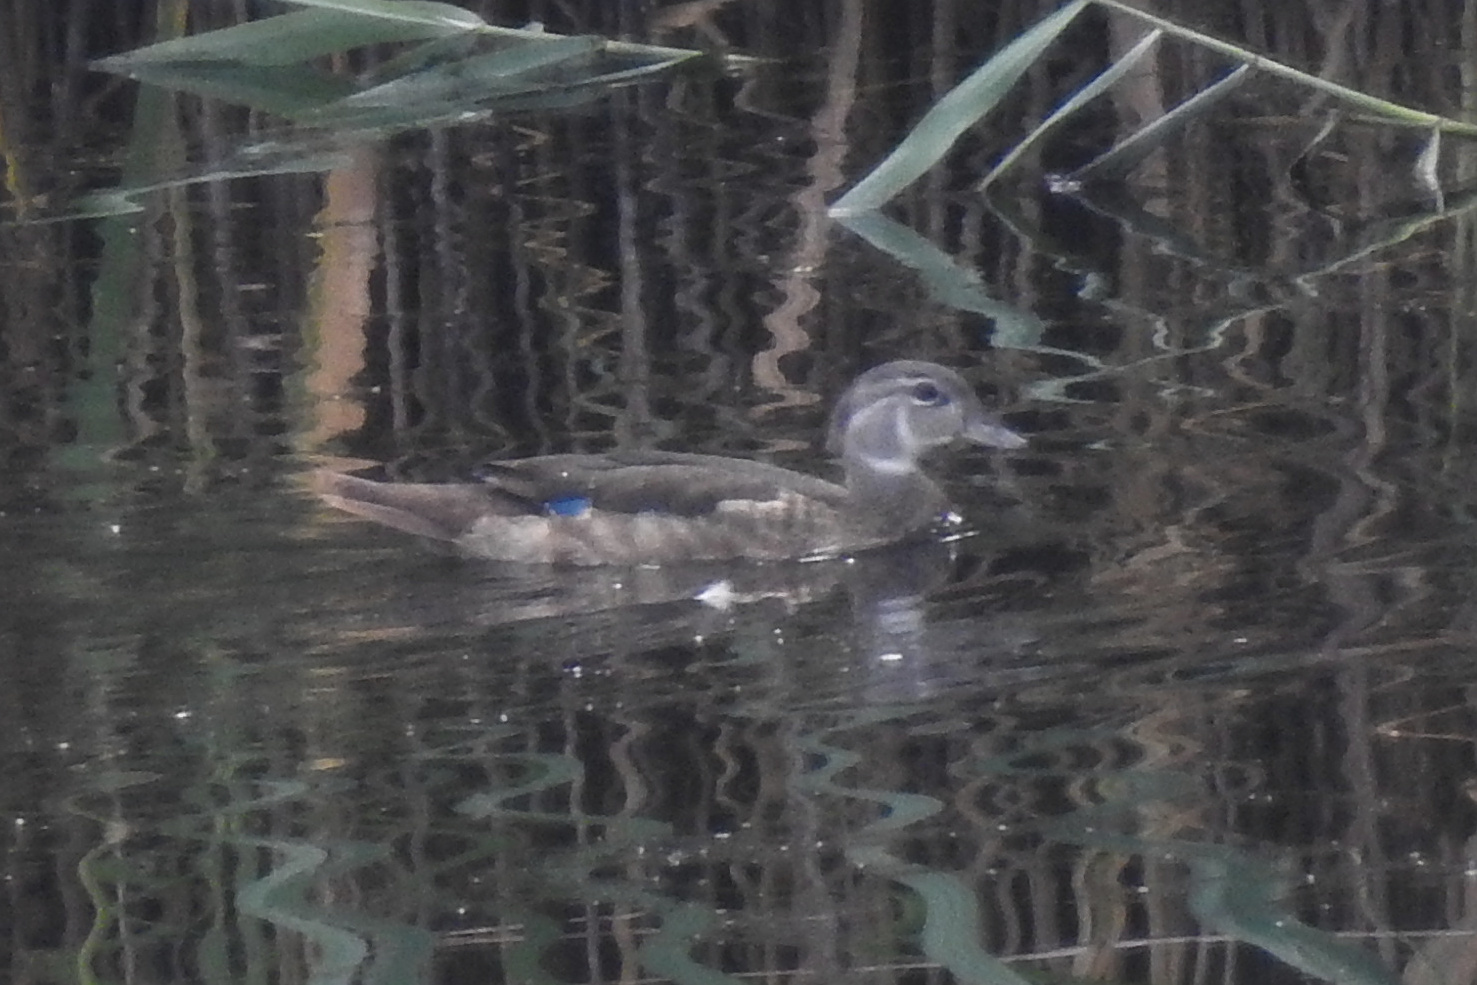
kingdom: Animalia
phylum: Chordata
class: Aves
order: Anseriformes
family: Anatidae
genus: Aix
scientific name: Aix sponsa
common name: Wood duck
